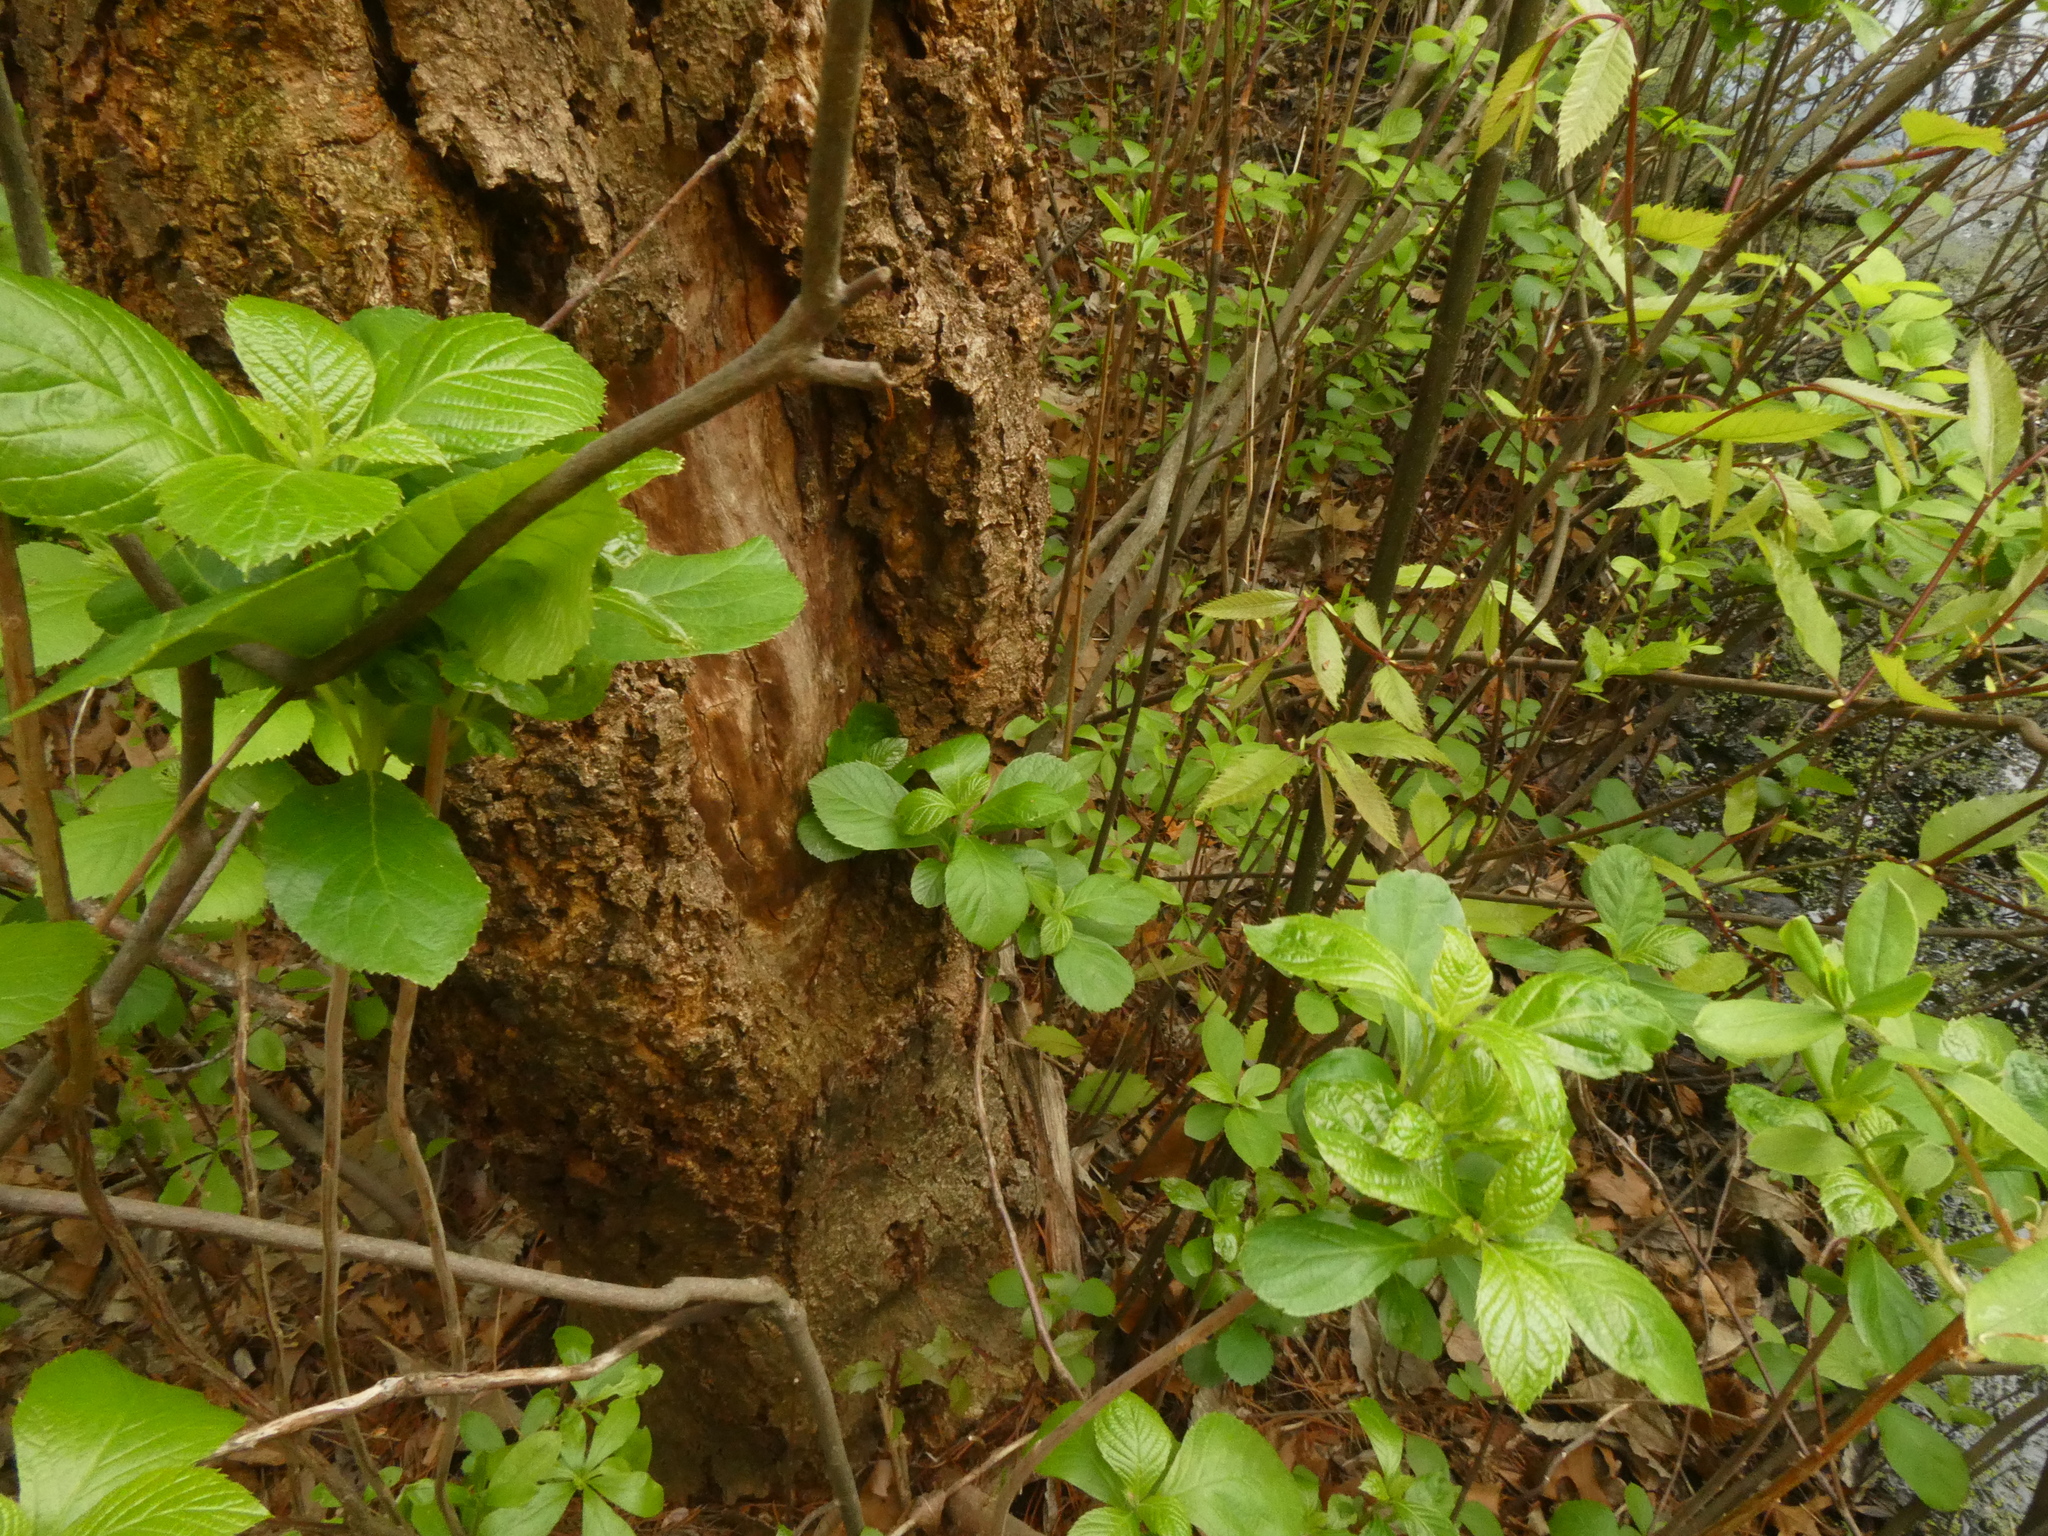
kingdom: Plantae
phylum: Tracheophyta
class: Magnoliopsida
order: Fagales
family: Fagaceae
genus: Castanea
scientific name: Castanea dentata
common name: American chestnut
